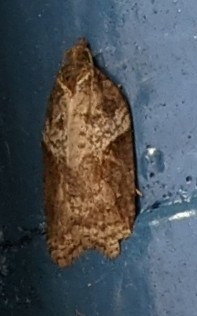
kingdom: Animalia
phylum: Arthropoda
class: Insecta
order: Lepidoptera
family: Tortricidae
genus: Acleris
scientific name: Acleris macdunnoughi
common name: Macdunnough's acleris
